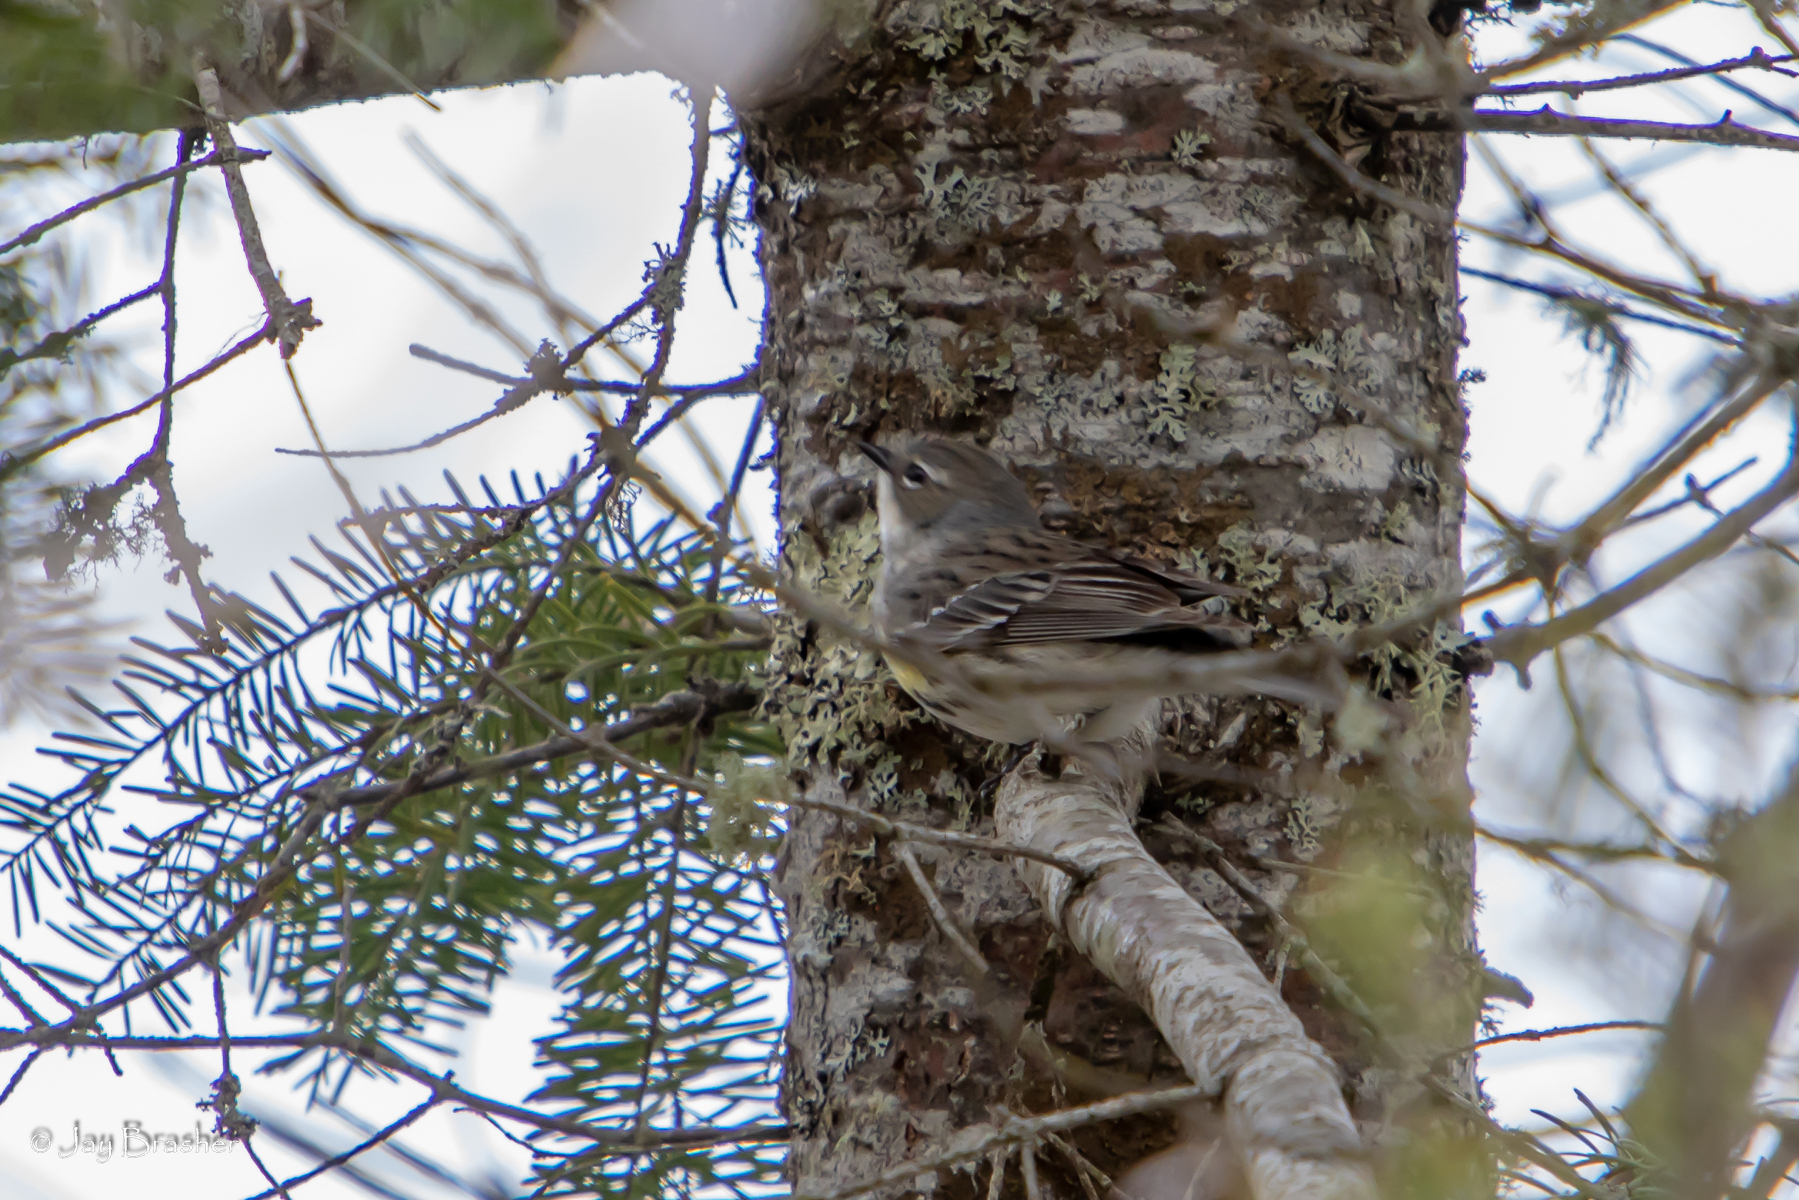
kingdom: Animalia
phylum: Chordata
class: Aves
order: Passeriformes
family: Parulidae
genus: Setophaga
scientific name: Setophaga coronata
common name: Myrtle warbler
